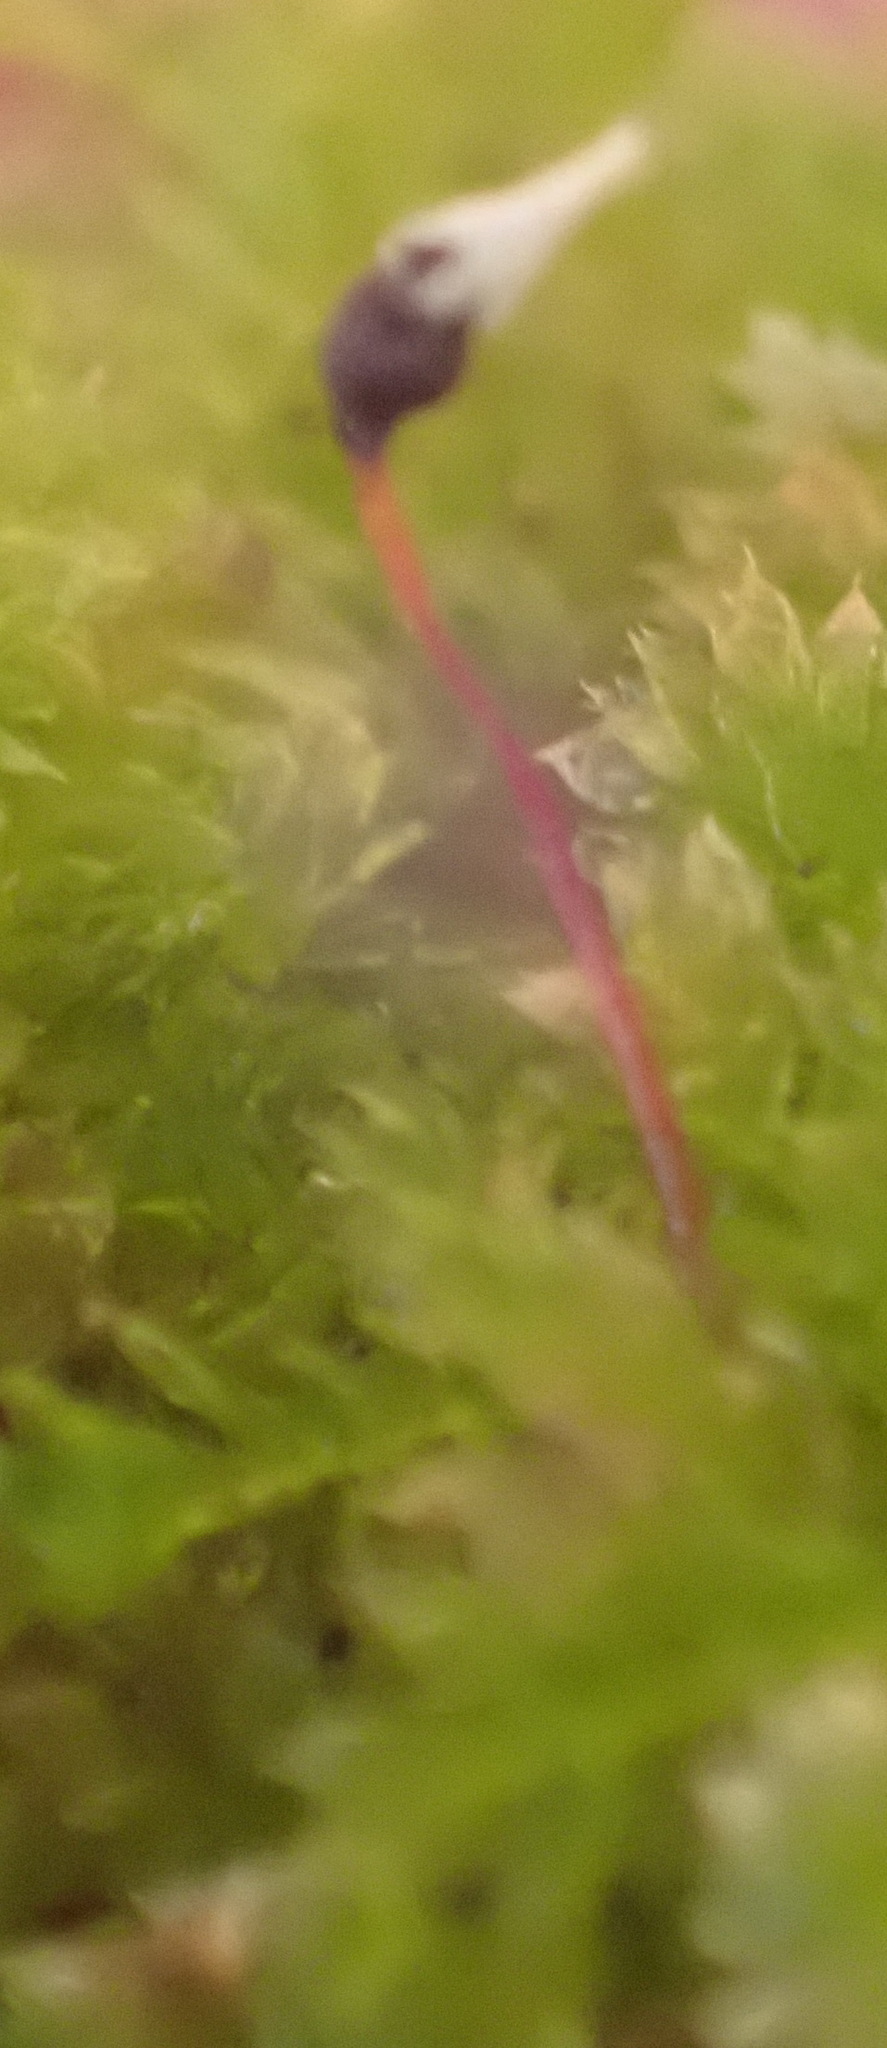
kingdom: Plantae
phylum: Bryophyta
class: Bryopsida
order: Hookeriales
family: Daltoniaceae
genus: Calyptrochaeta
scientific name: Calyptrochaeta asplenioides
